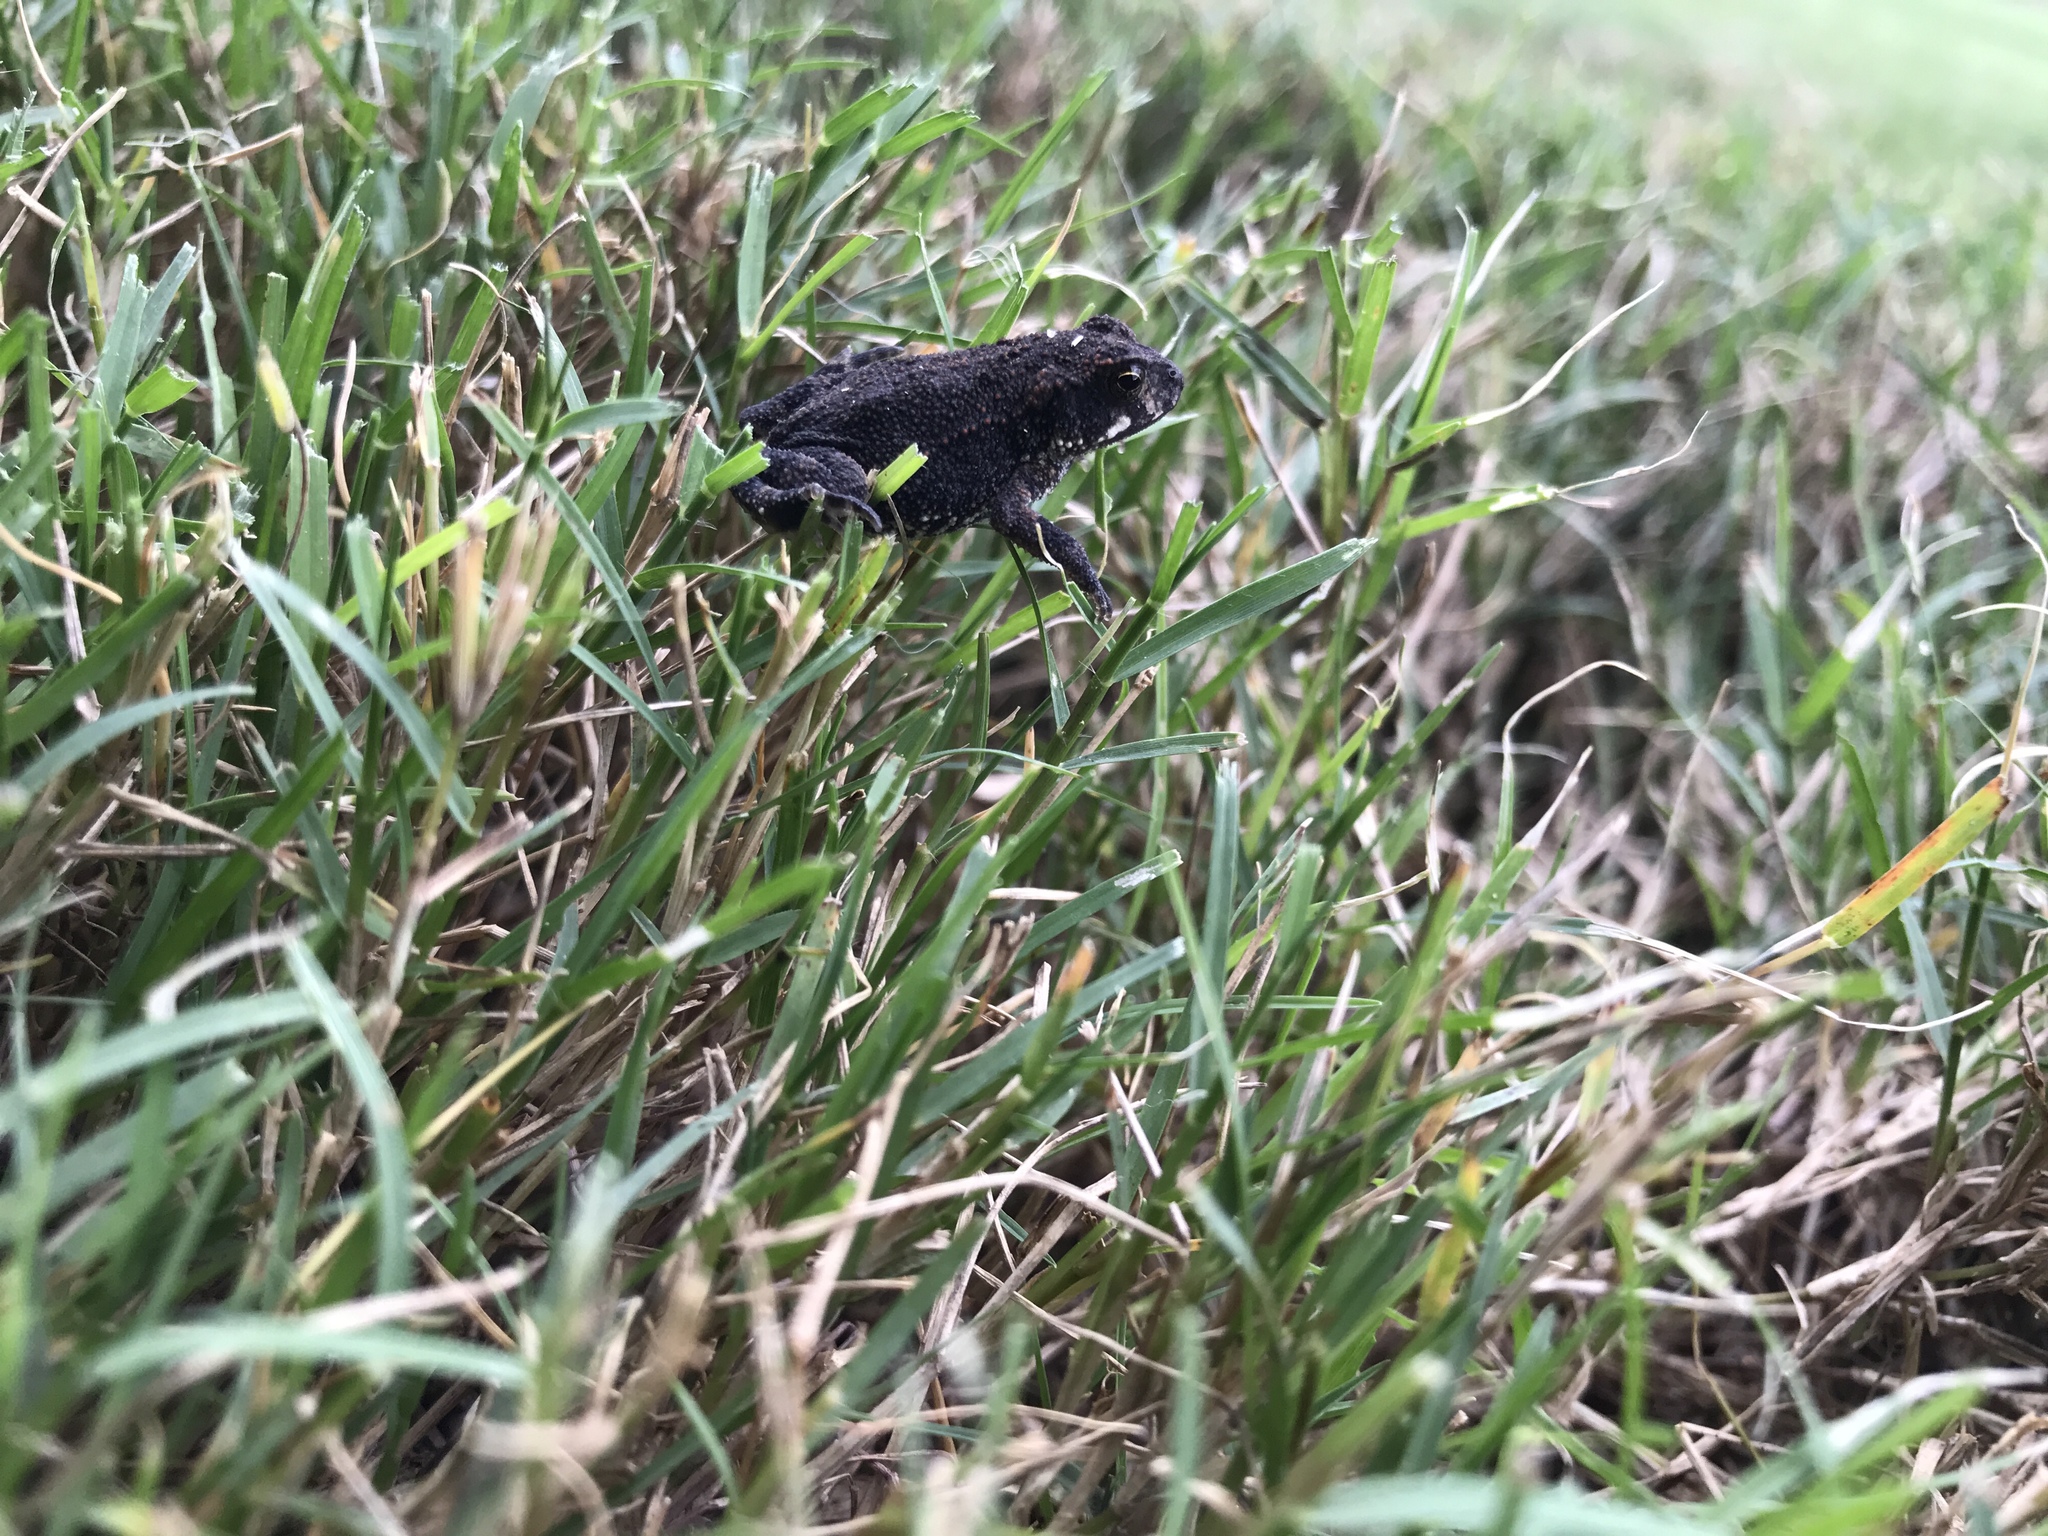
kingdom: Animalia
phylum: Chordata
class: Amphibia
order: Anura
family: Bufonidae
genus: Incilius
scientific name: Incilius nebulifer
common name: Gulf coast toad
